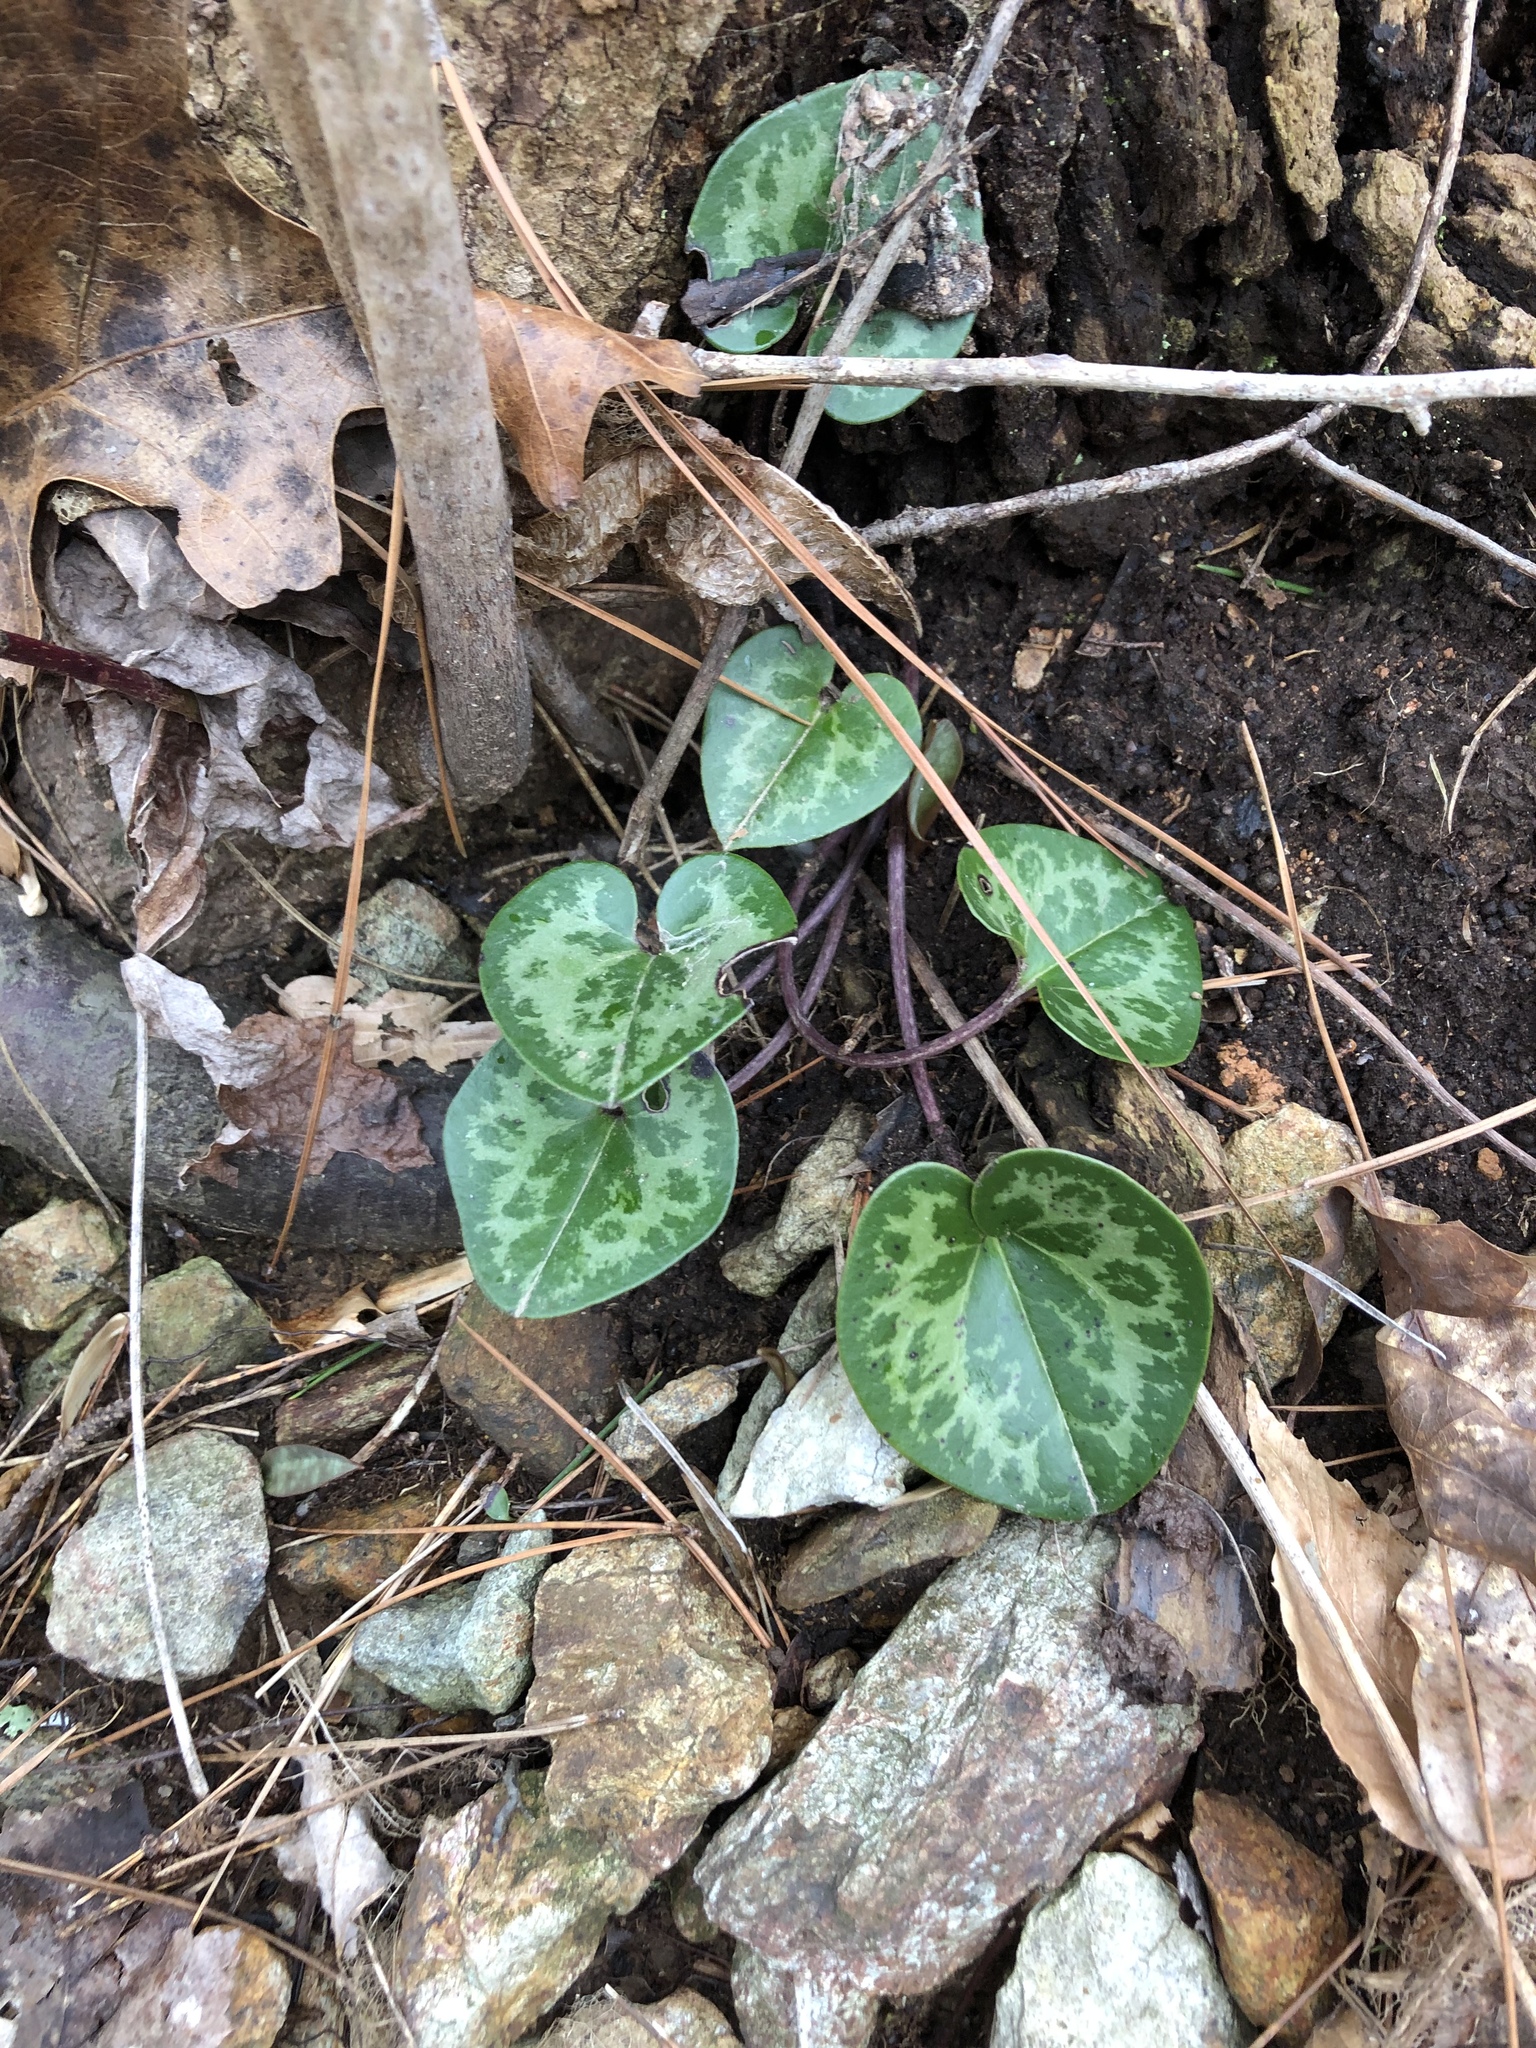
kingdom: Plantae
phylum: Tracheophyta
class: Magnoliopsida
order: Piperales
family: Aristolochiaceae
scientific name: Aristolochiaceae
